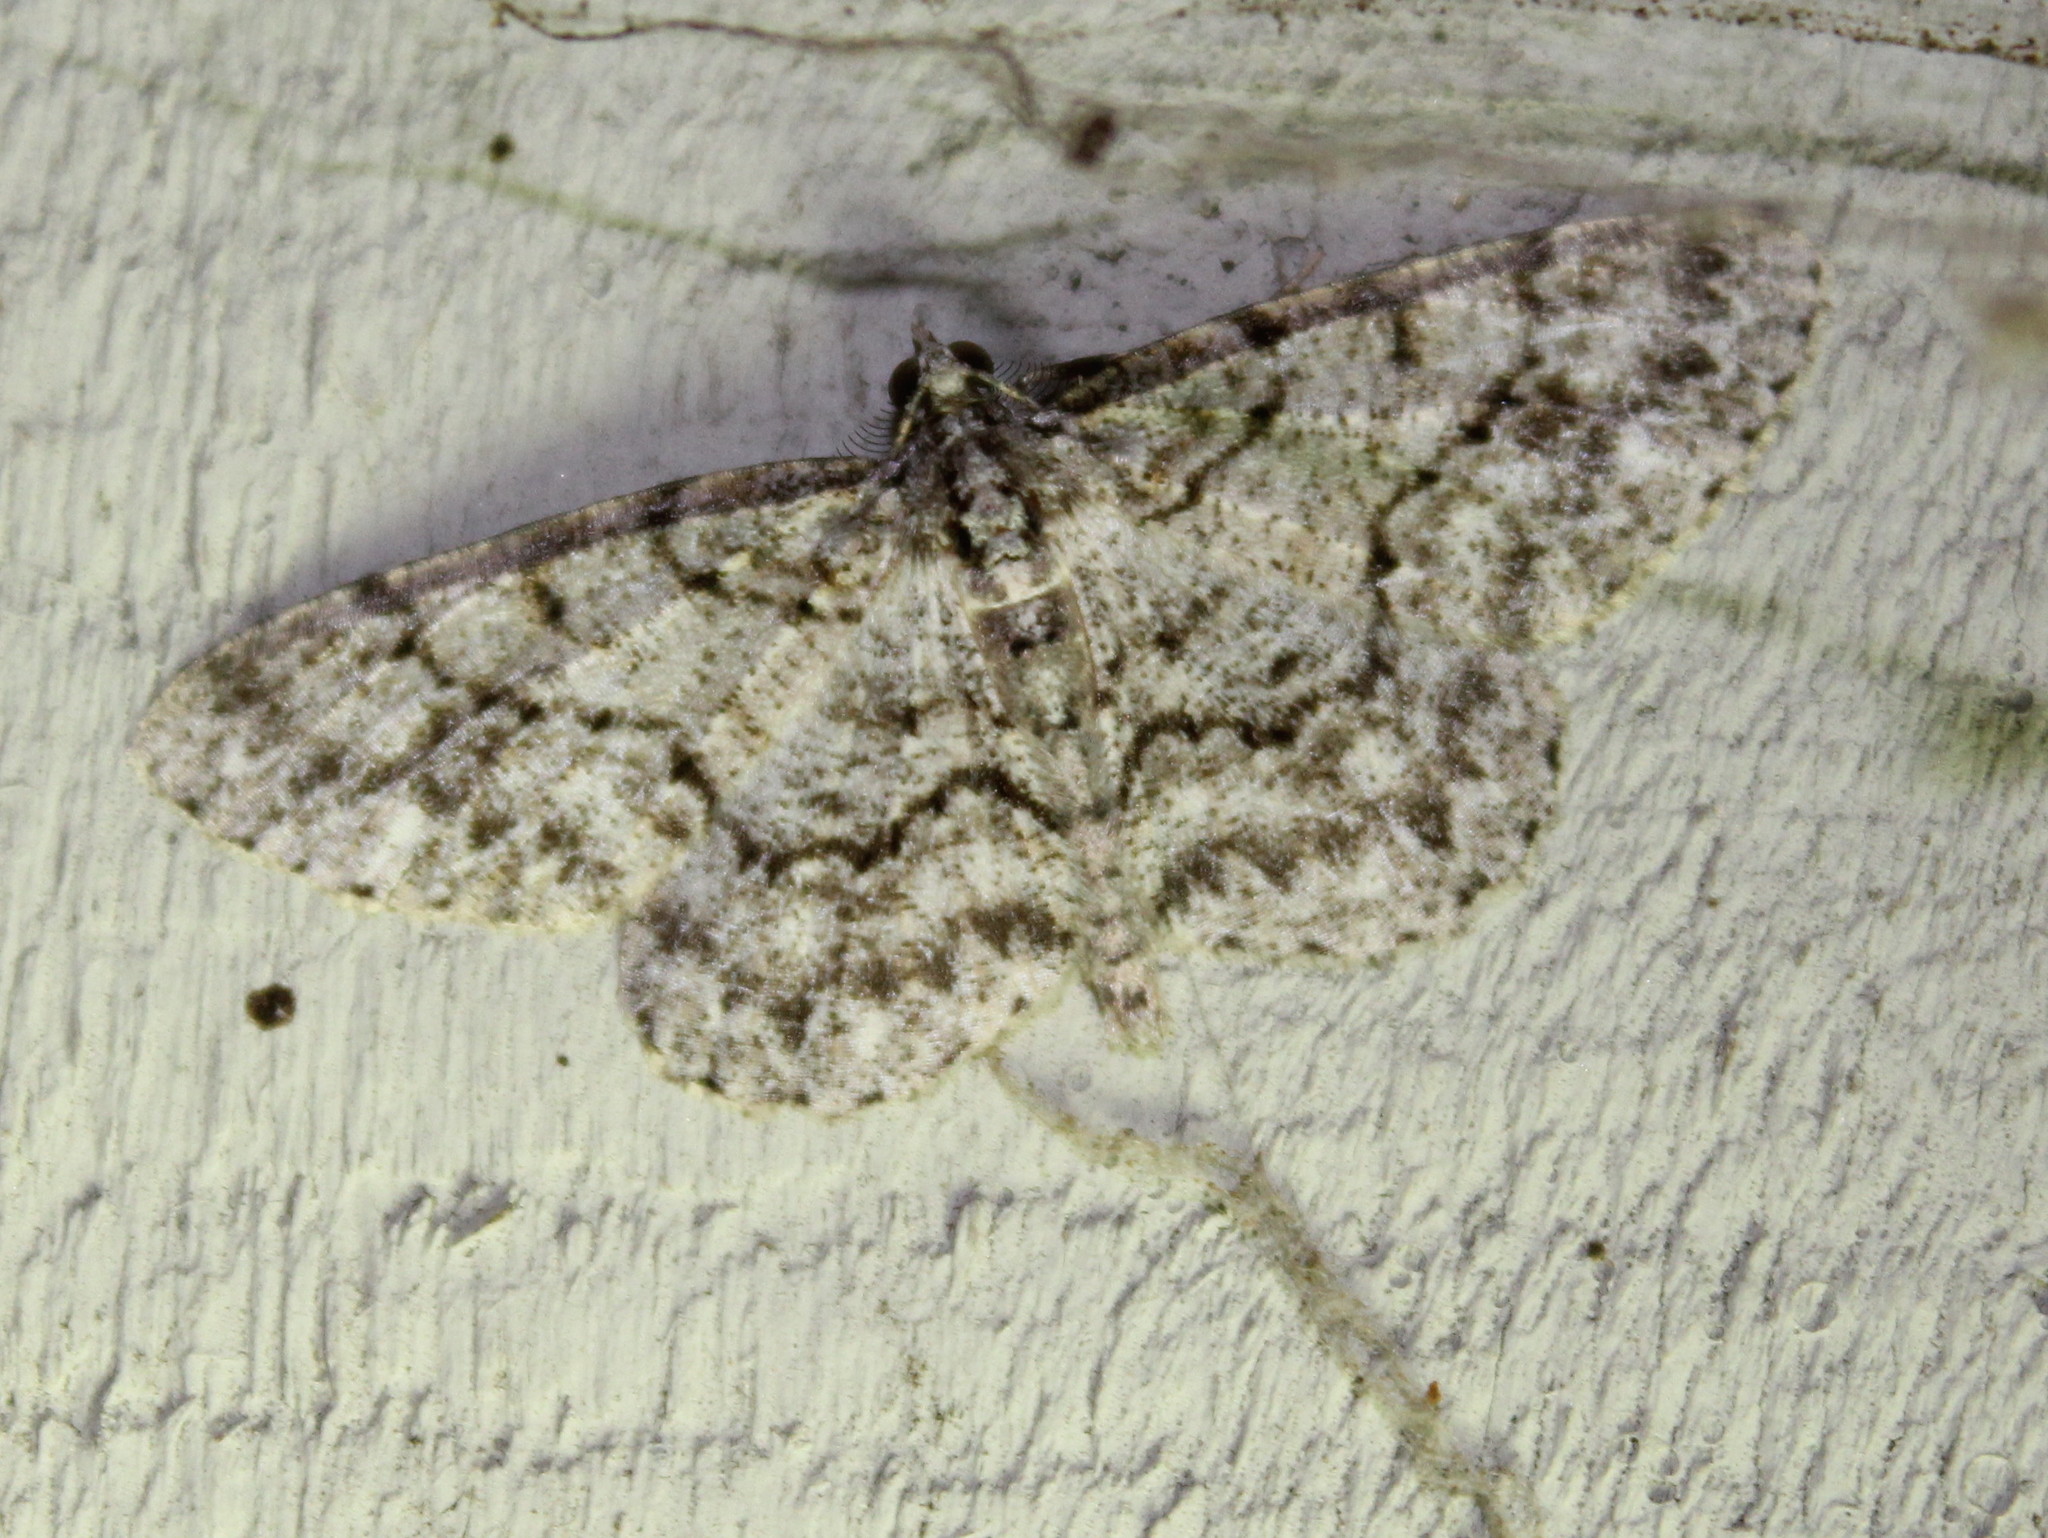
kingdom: Animalia
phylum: Arthropoda
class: Insecta
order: Lepidoptera
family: Geometridae
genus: Protoboarmia
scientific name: Protoboarmia porcelaria
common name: Porcelain gray
